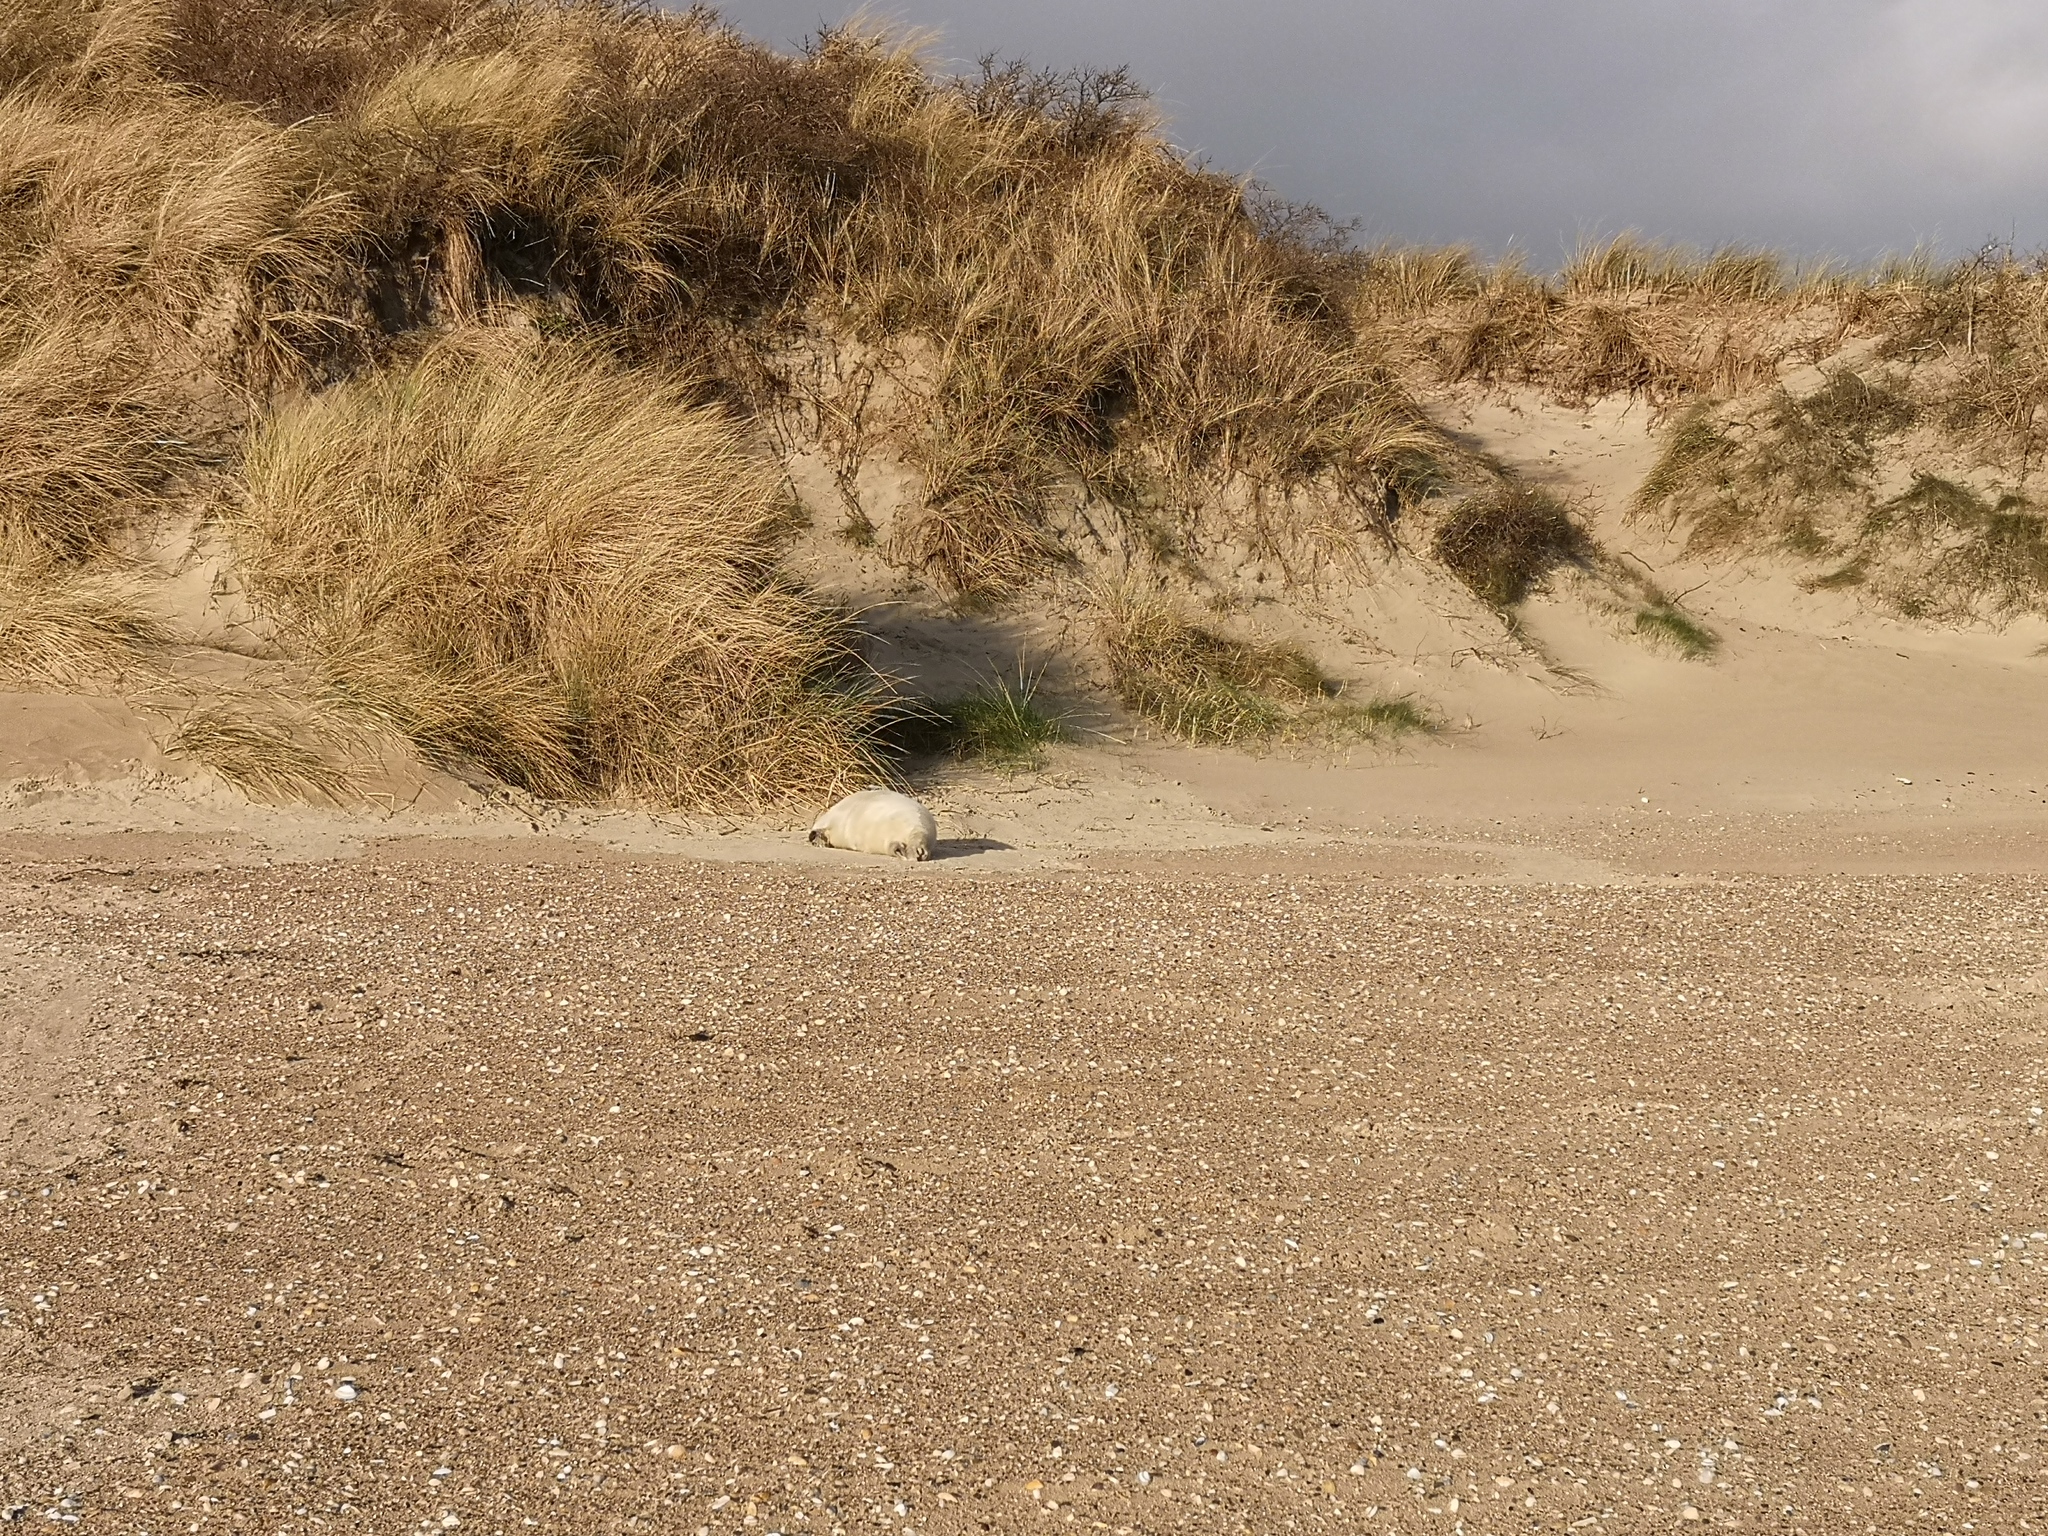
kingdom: Animalia
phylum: Chordata
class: Mammalia
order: Carnivora
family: Phocidae
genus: Halichoerus
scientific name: Halichoerus grypus
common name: Grey seal
